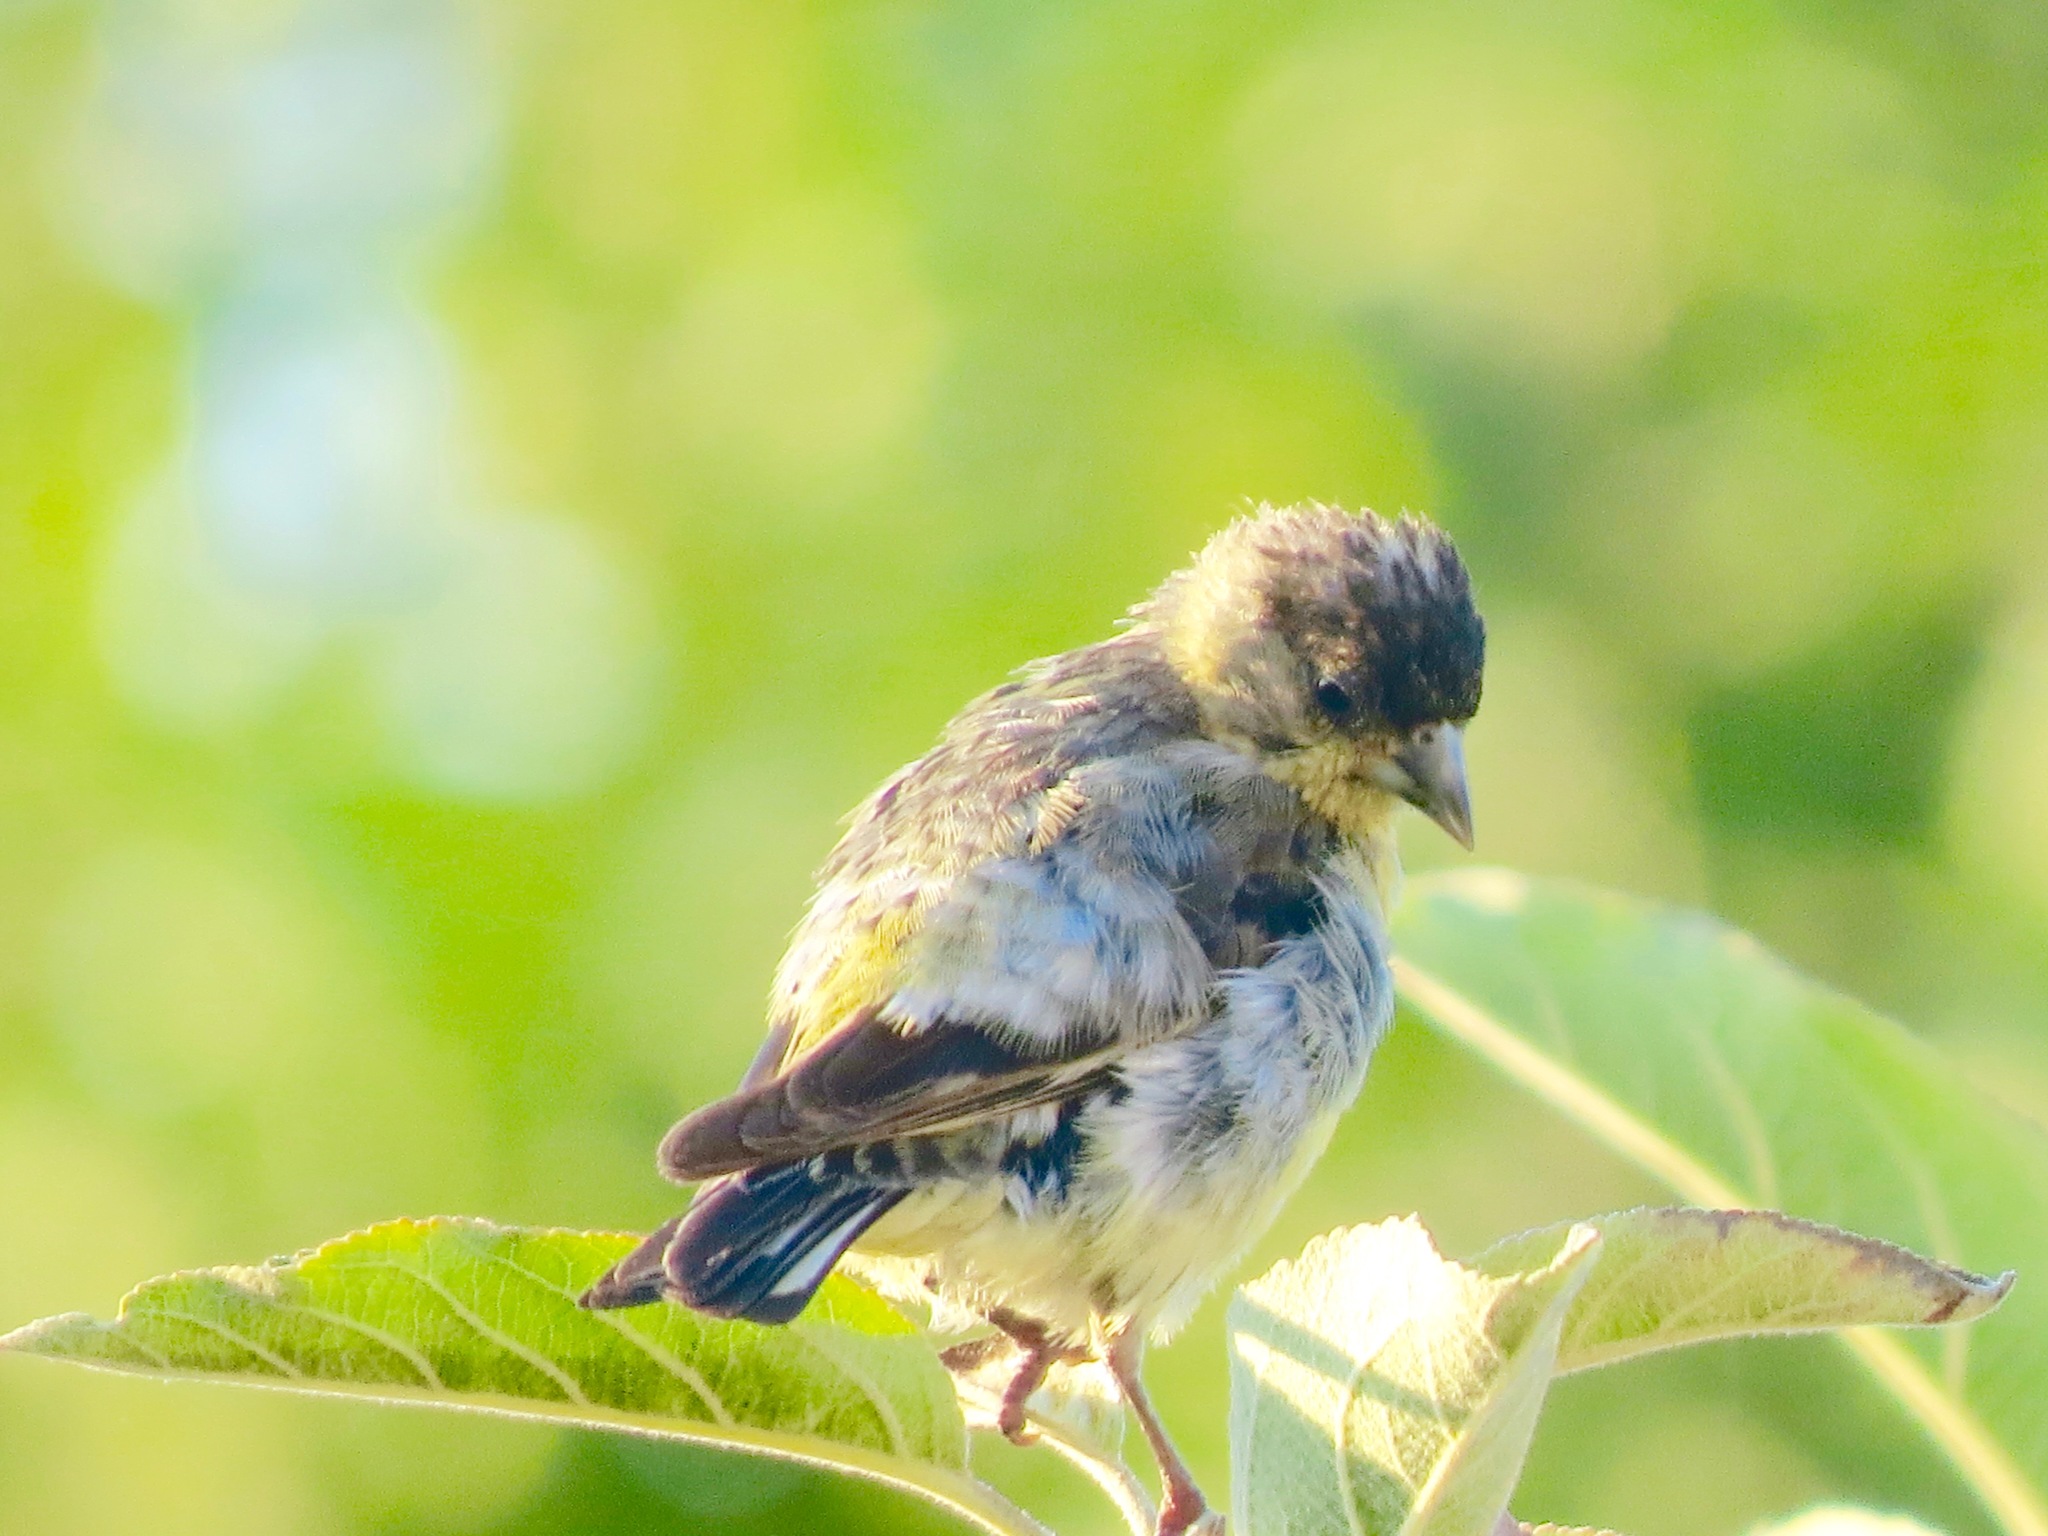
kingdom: Animalia
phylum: Chordata
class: Aves
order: Passeriformes
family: Fringillidae
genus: Spinus
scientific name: Spinus psaltria
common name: Lesser goldfinch
